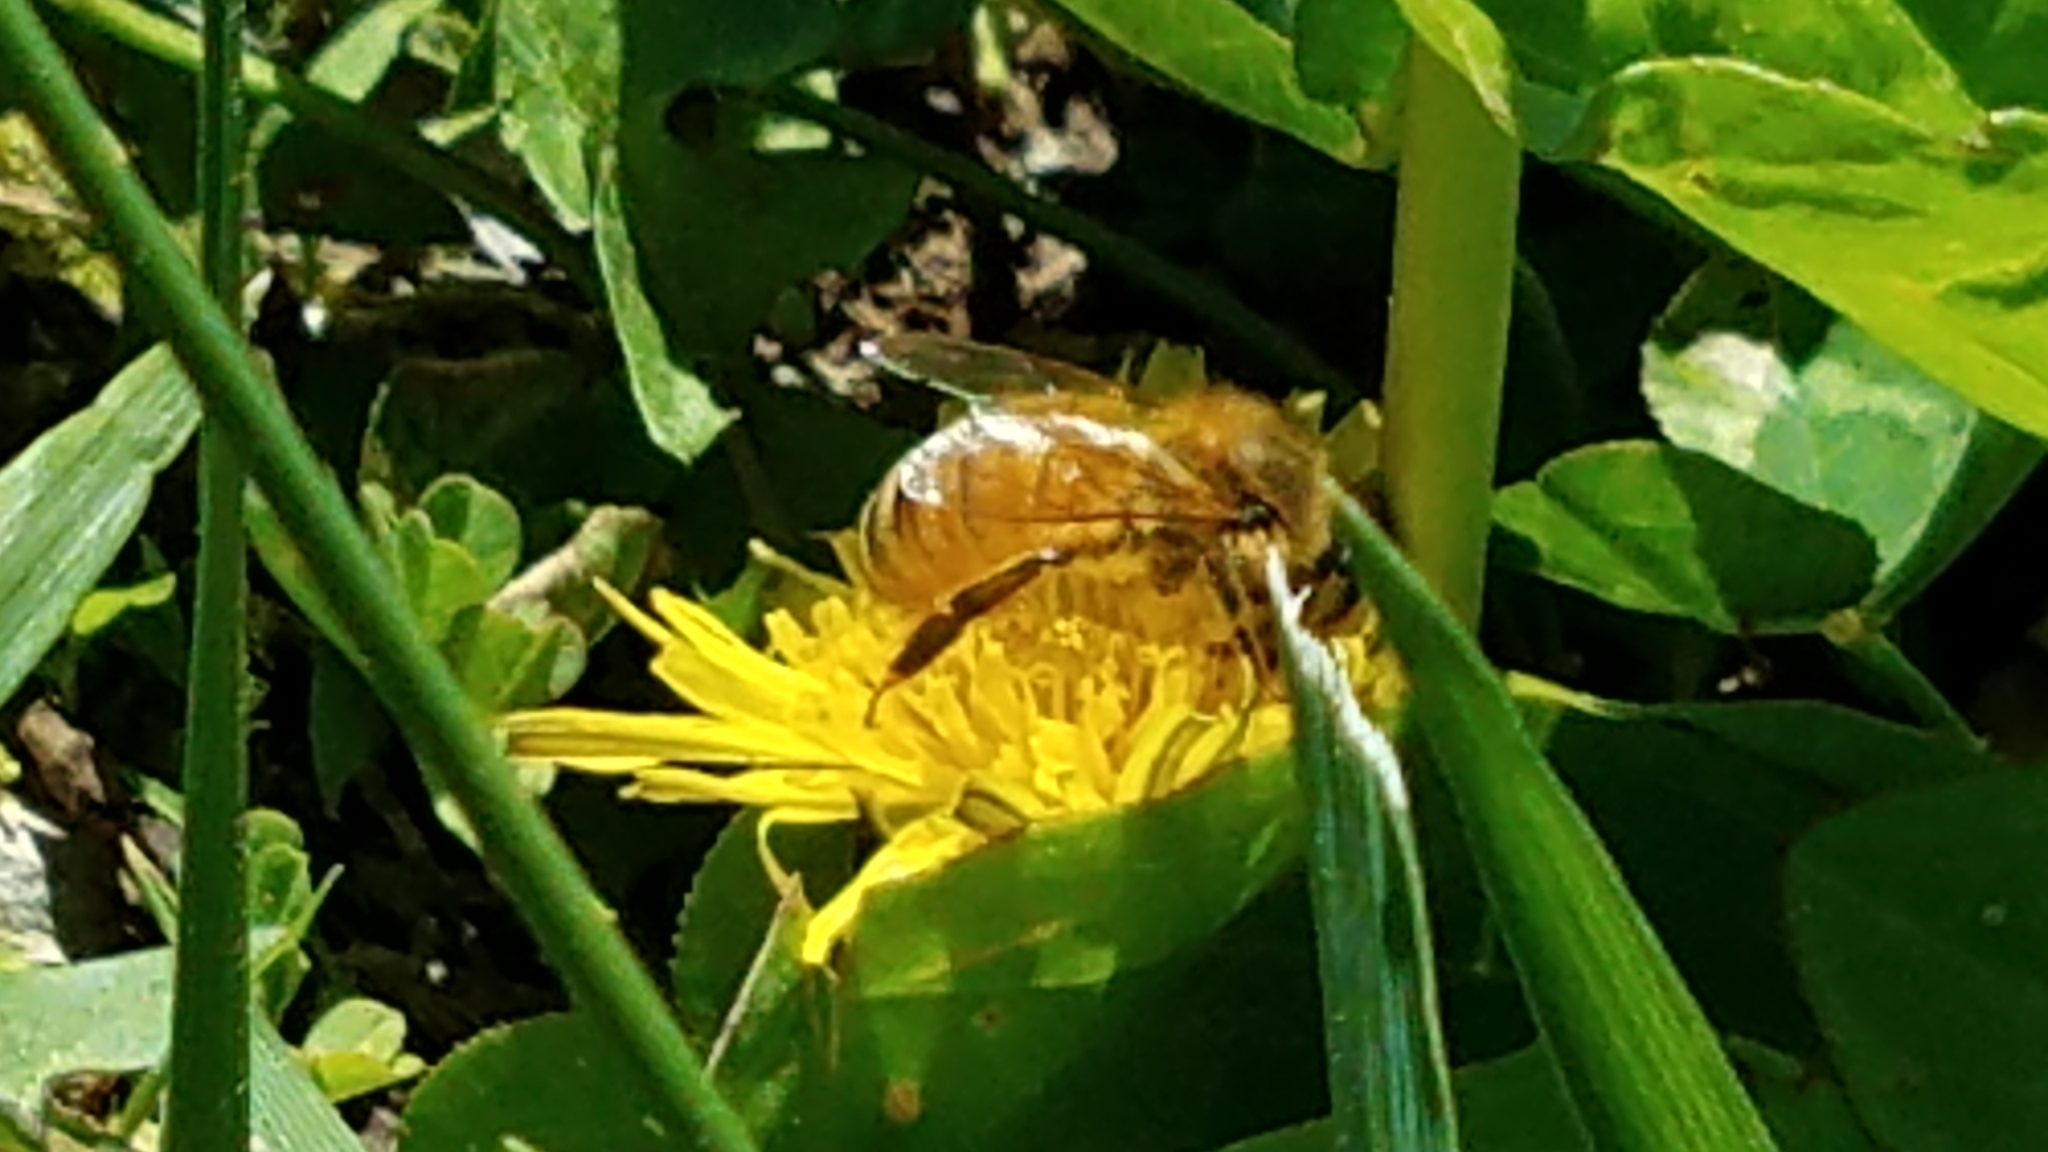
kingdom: Animalia
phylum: Arthropoda
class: Insecta
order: Hymenoptera
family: Apidae
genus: Apis
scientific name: Apis mellifera
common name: Honey bee
